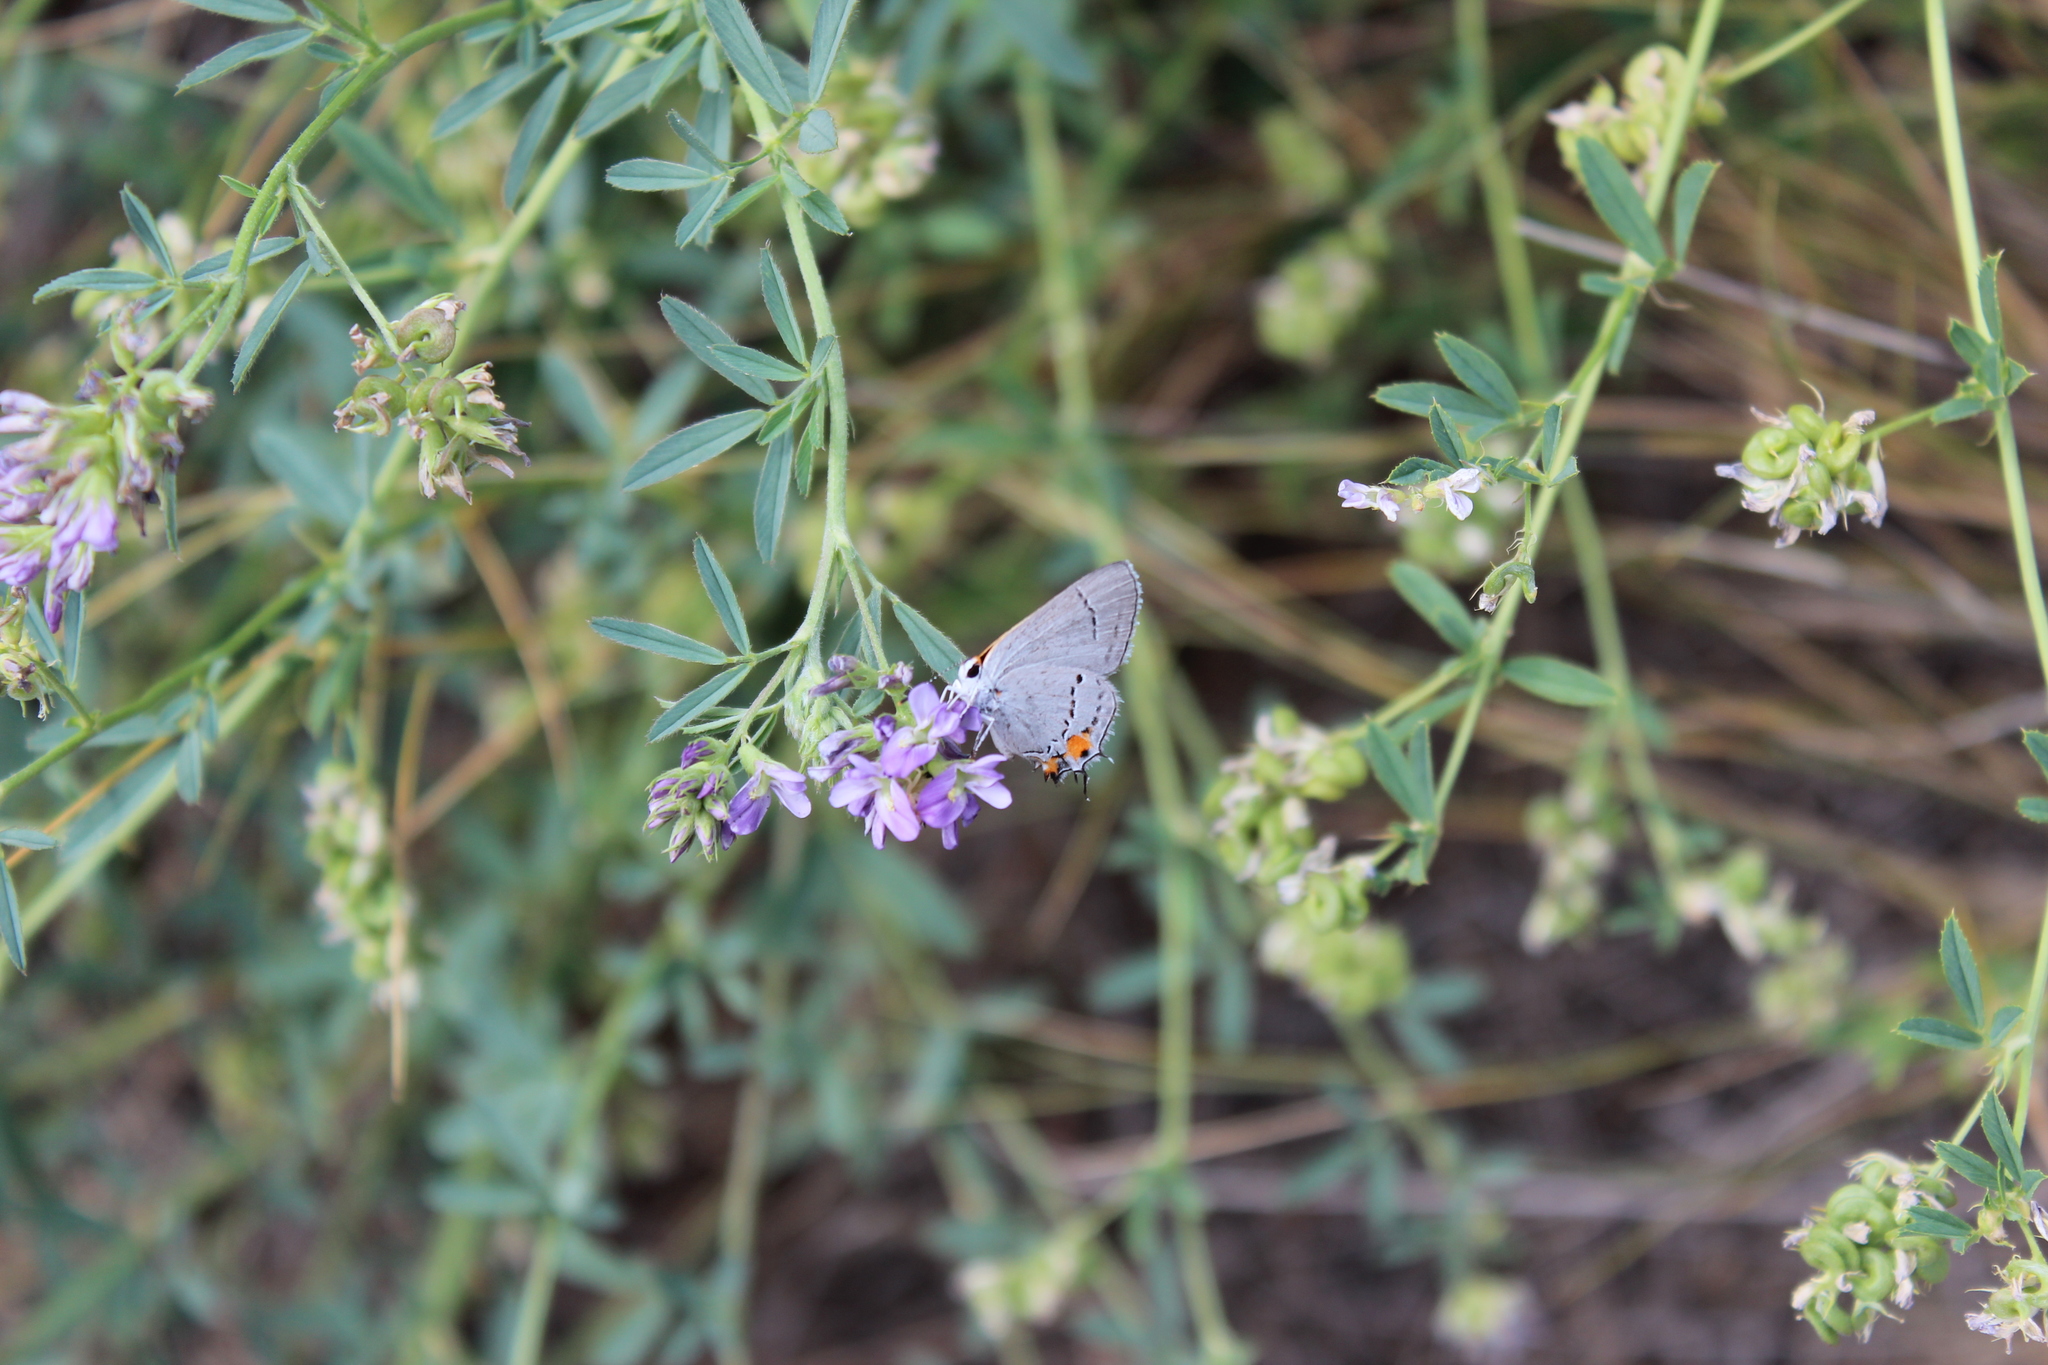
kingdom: Animalia
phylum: Arthropoda
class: Insecta
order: Lepidoptera
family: Lycaenidae
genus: Strymon
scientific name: Strymon melinus
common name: Gray hairstreak
